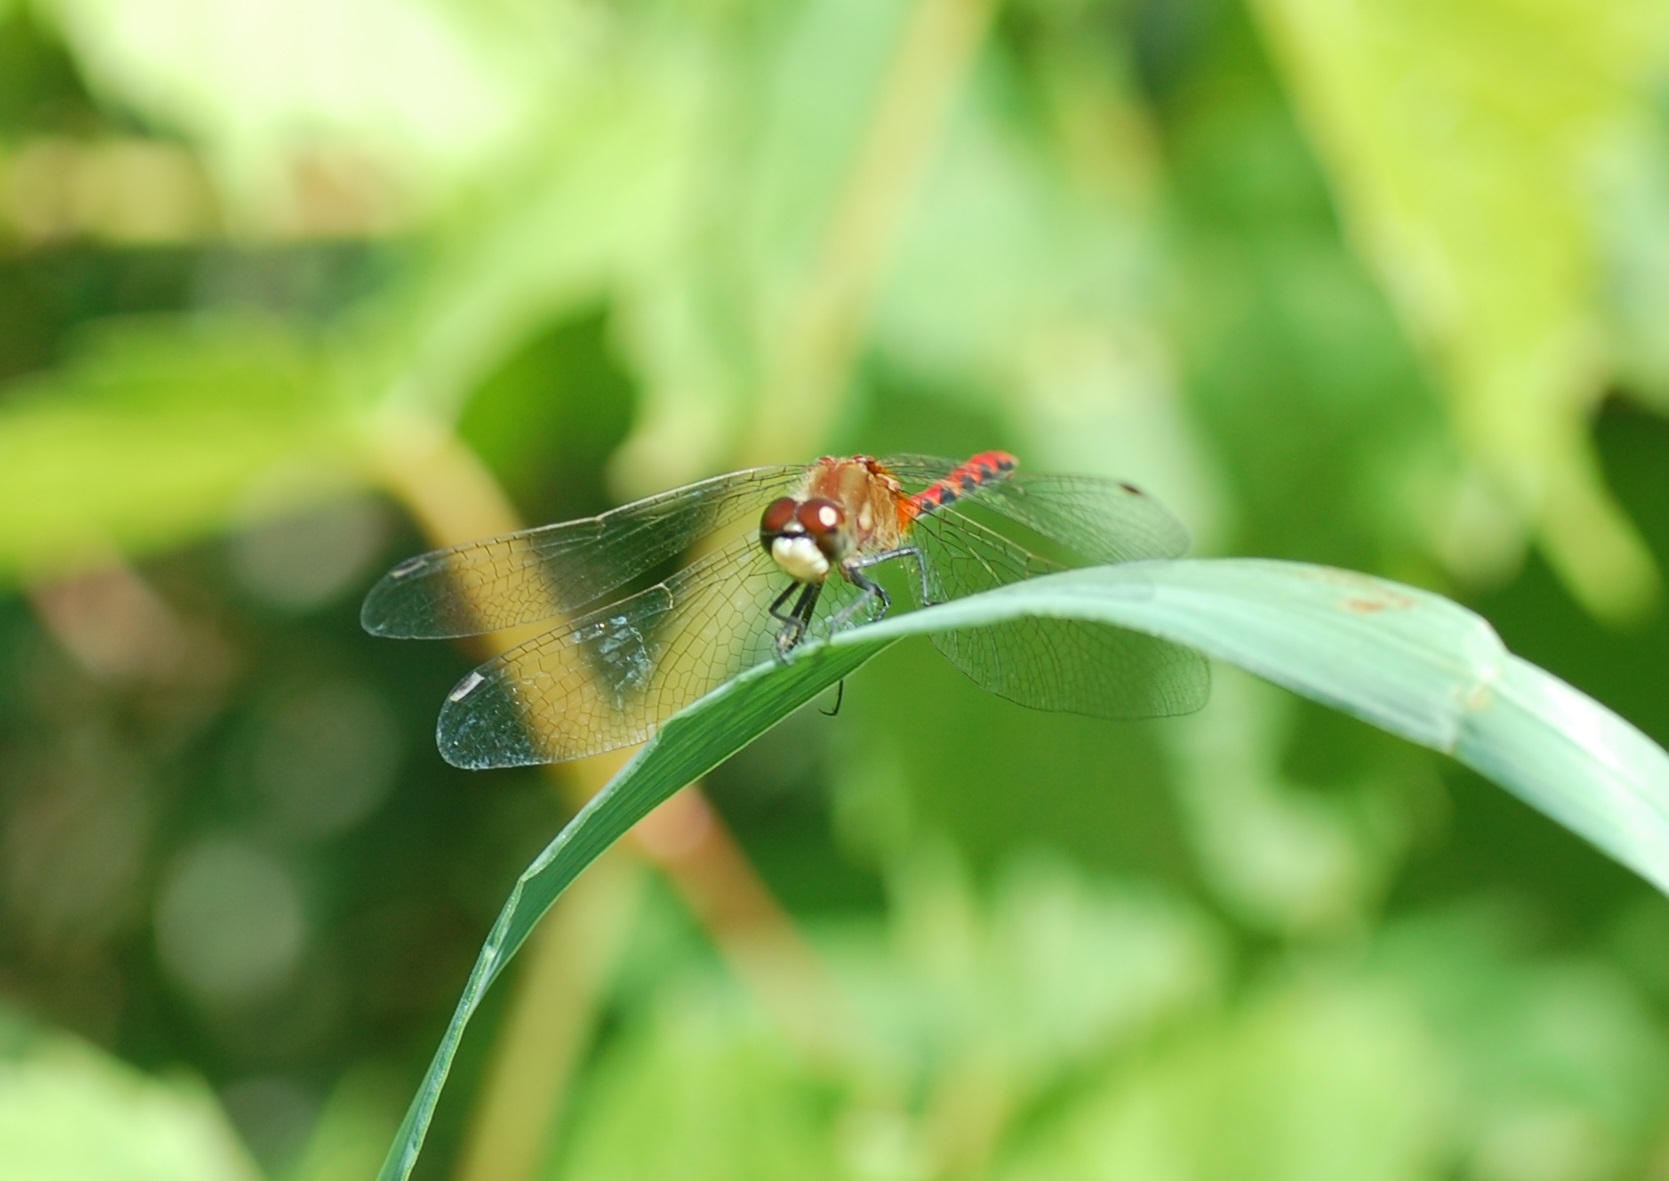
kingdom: Animalia
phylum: Arthropoda
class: Insecta
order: Odonata
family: Libellulidae
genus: Sympetrum
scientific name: Sympetrum obtrusum
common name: White-faced meadowhawk
